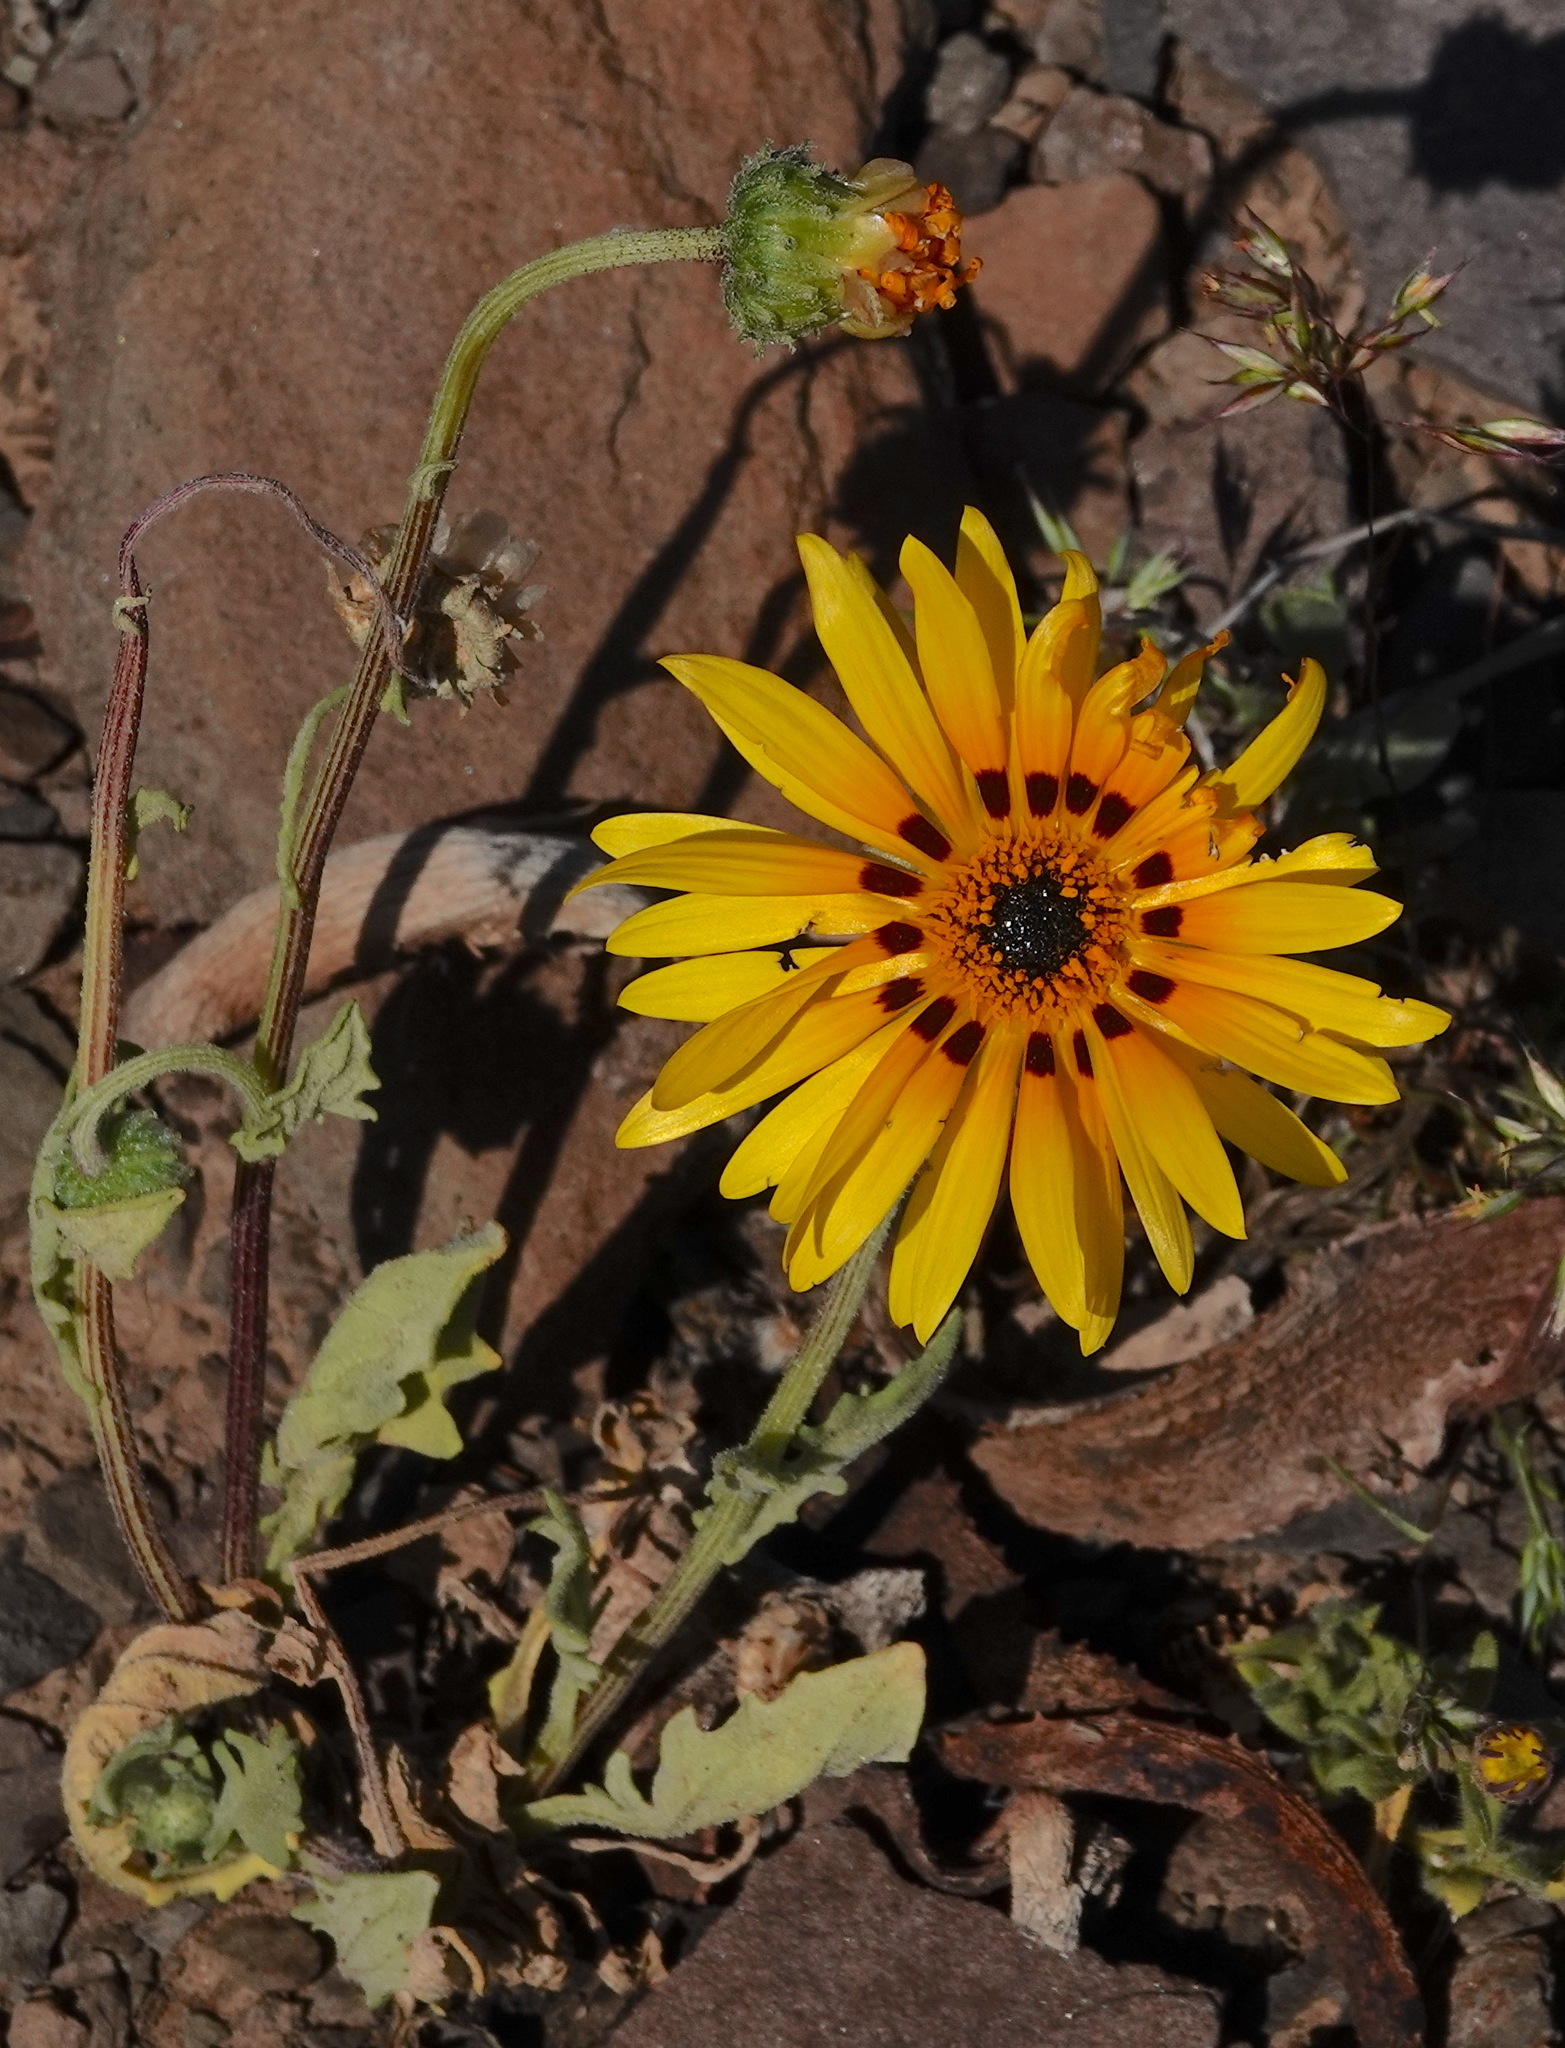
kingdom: Plantae
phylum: Tracheophyta
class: Magnoliopsida
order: Asterales
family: Asteraceae
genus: Arctotis
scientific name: Arctotis hirsuta
